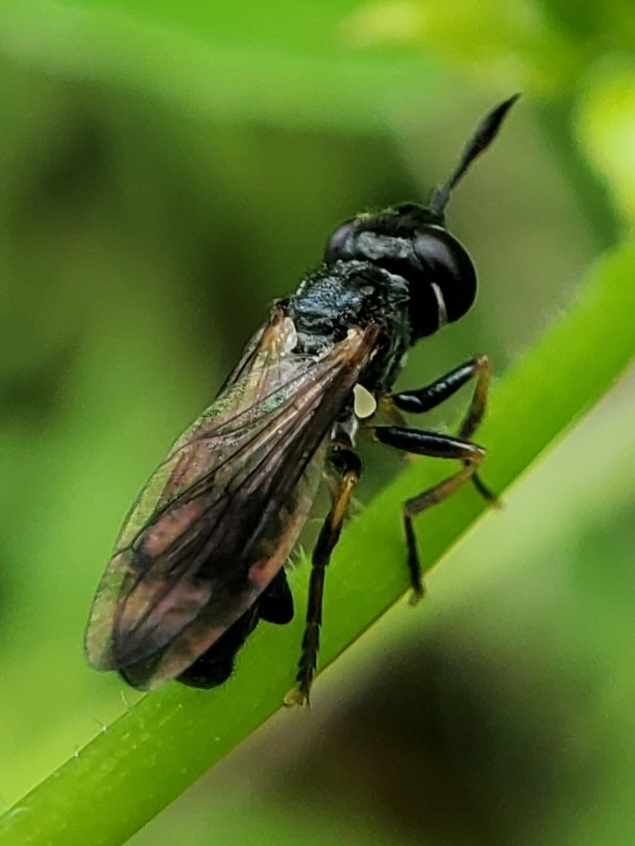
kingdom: Animalia
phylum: Arthropoda
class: Insecta
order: Diptera
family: Conopidae
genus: Gyroconops
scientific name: Gyroconops sylvosus
